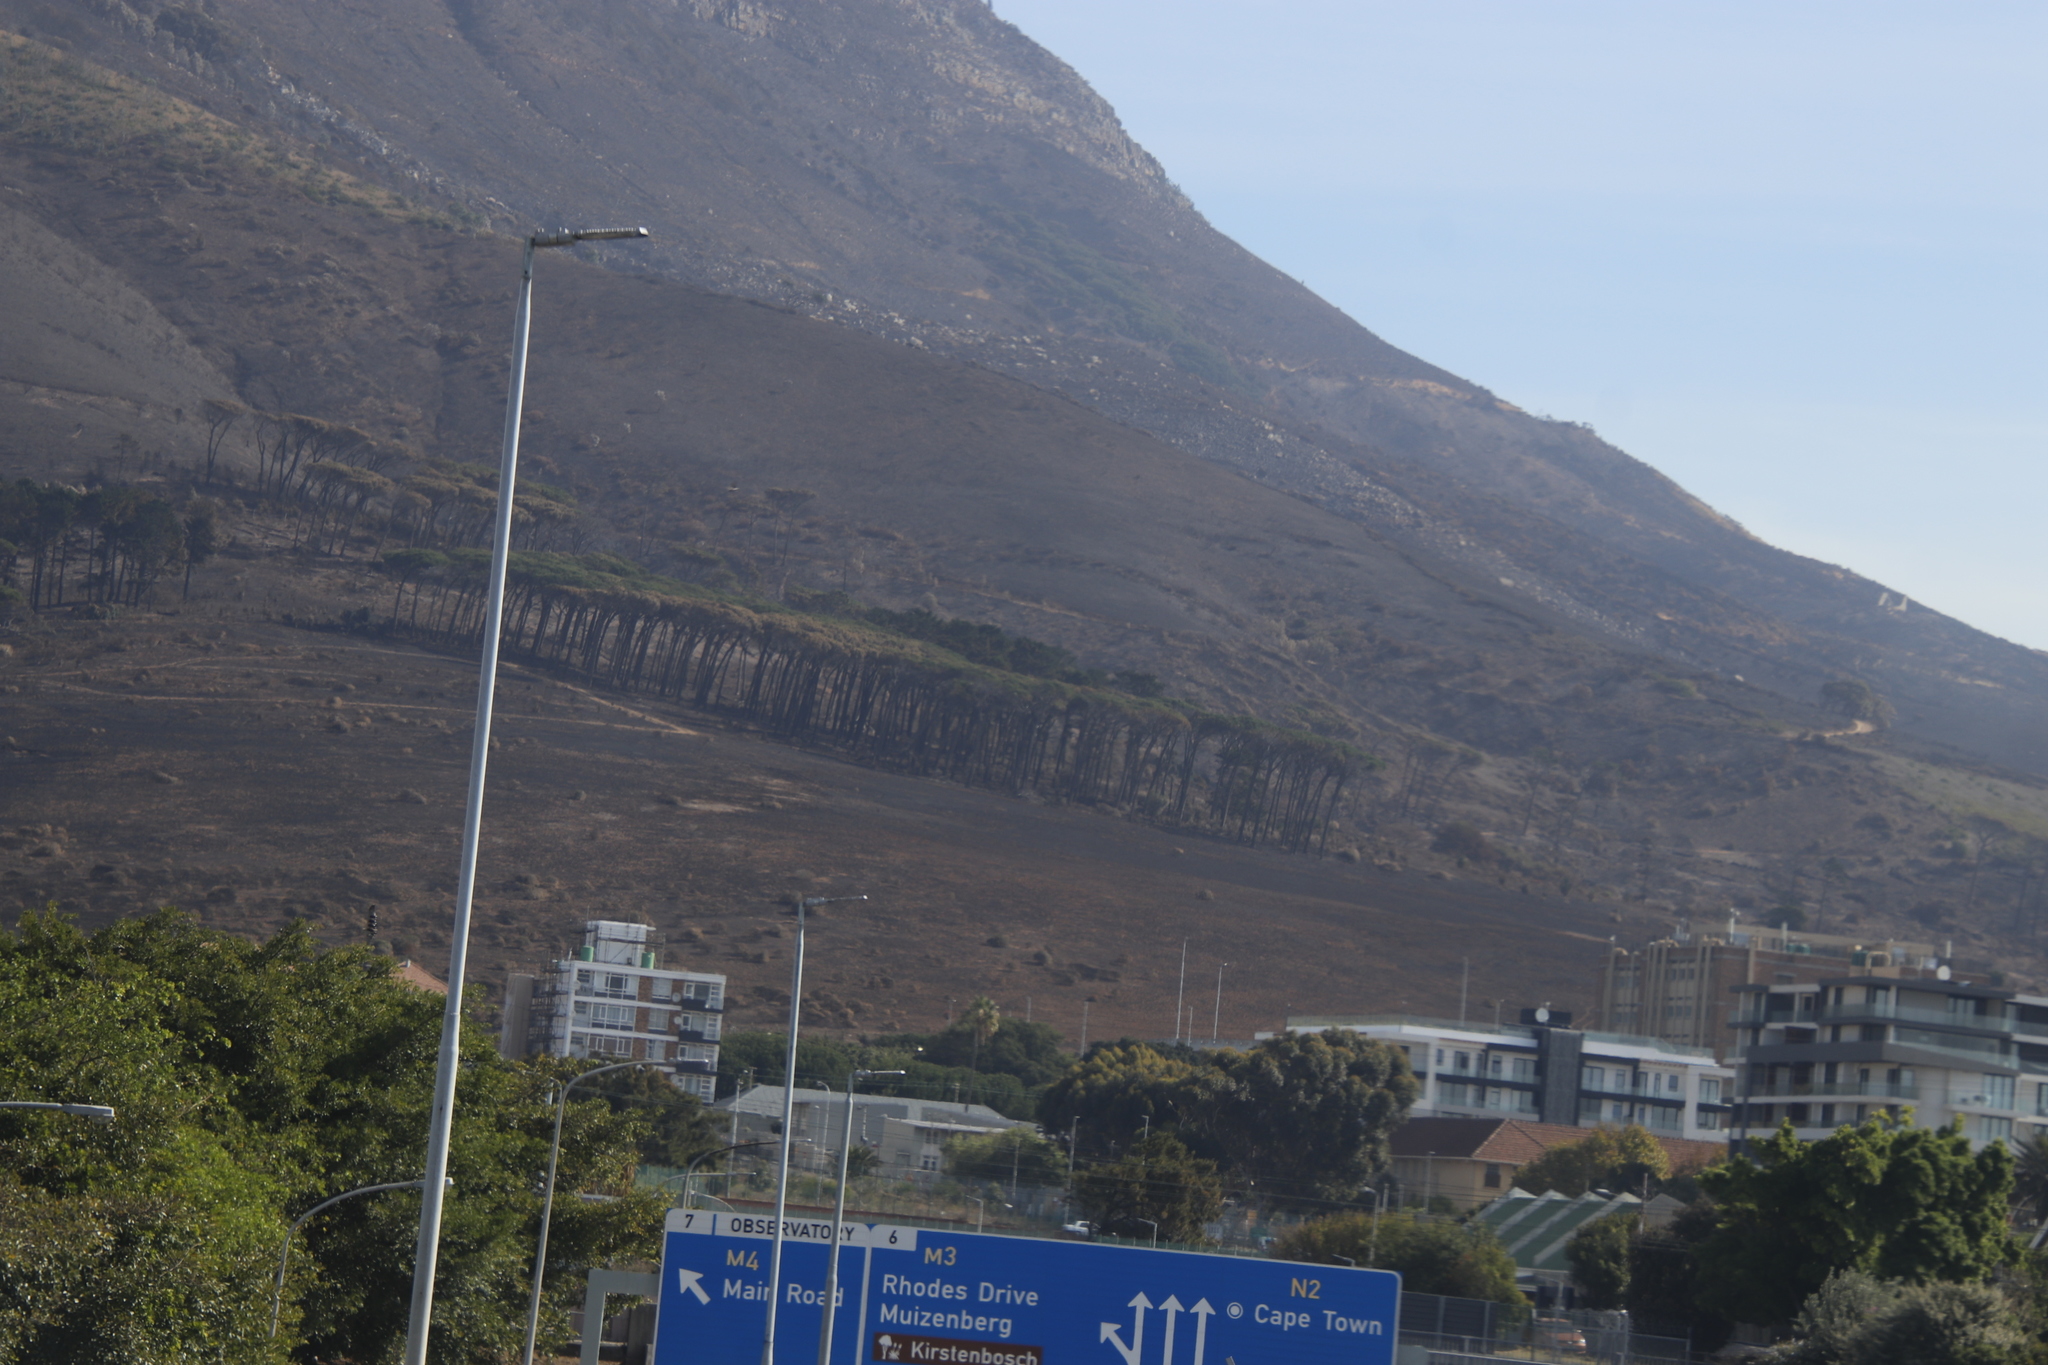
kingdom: Plantae
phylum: Tracheophyta
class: Pinopsida
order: Pinales
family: Pinaceae
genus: Pinus
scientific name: Pinus pinea
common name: Italian stone pine
